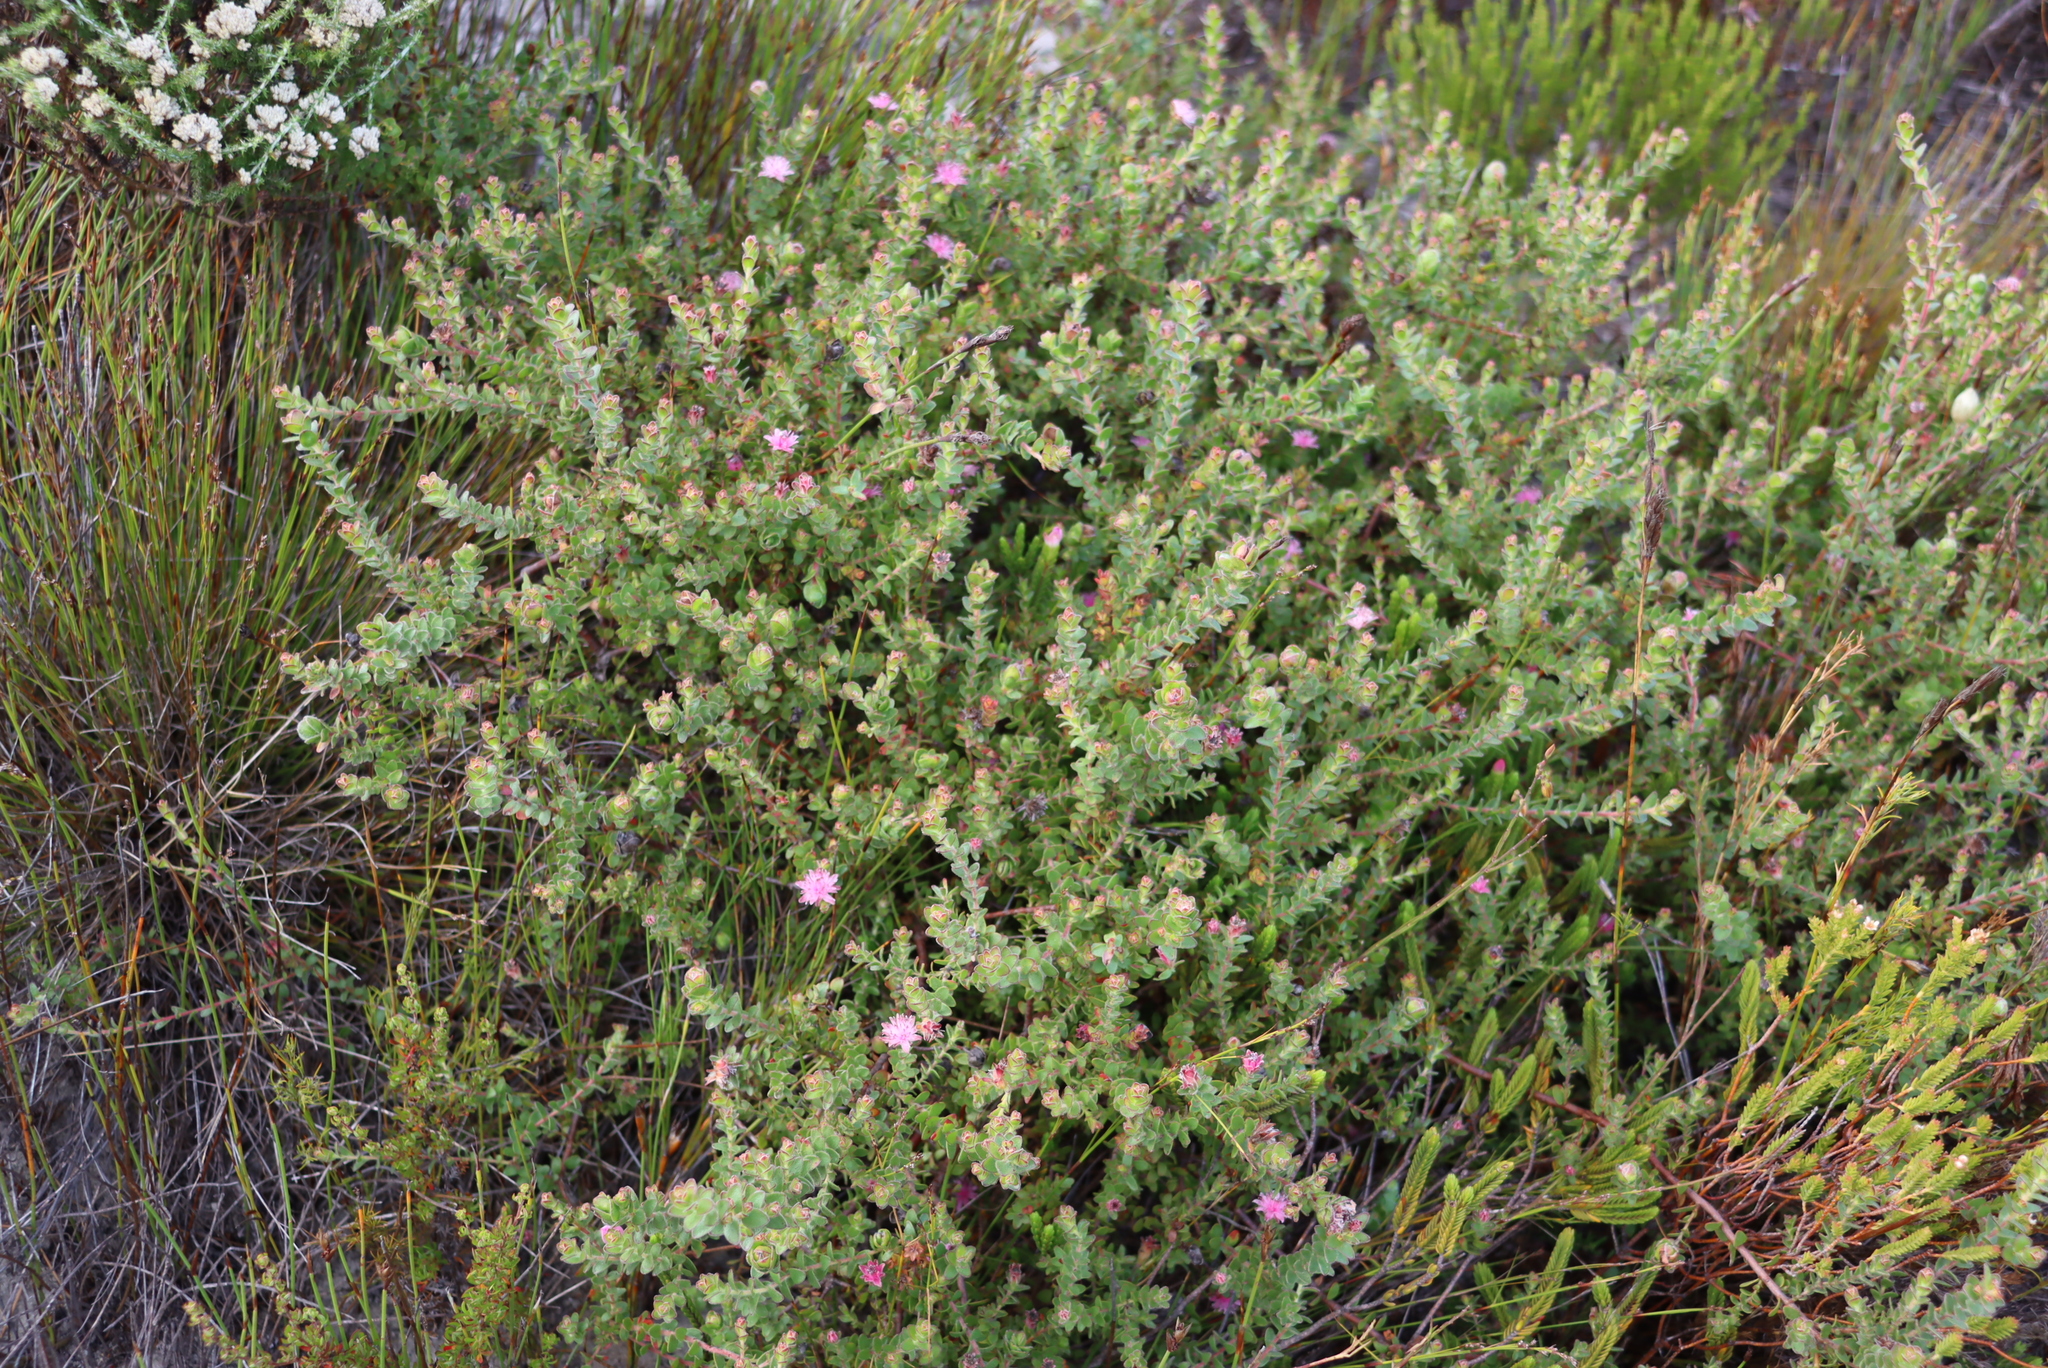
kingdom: Plantae
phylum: Tracheophyta
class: Magnoliopsida
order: Proteales
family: Proteaceae
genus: Diastella
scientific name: Diastella divaricata
